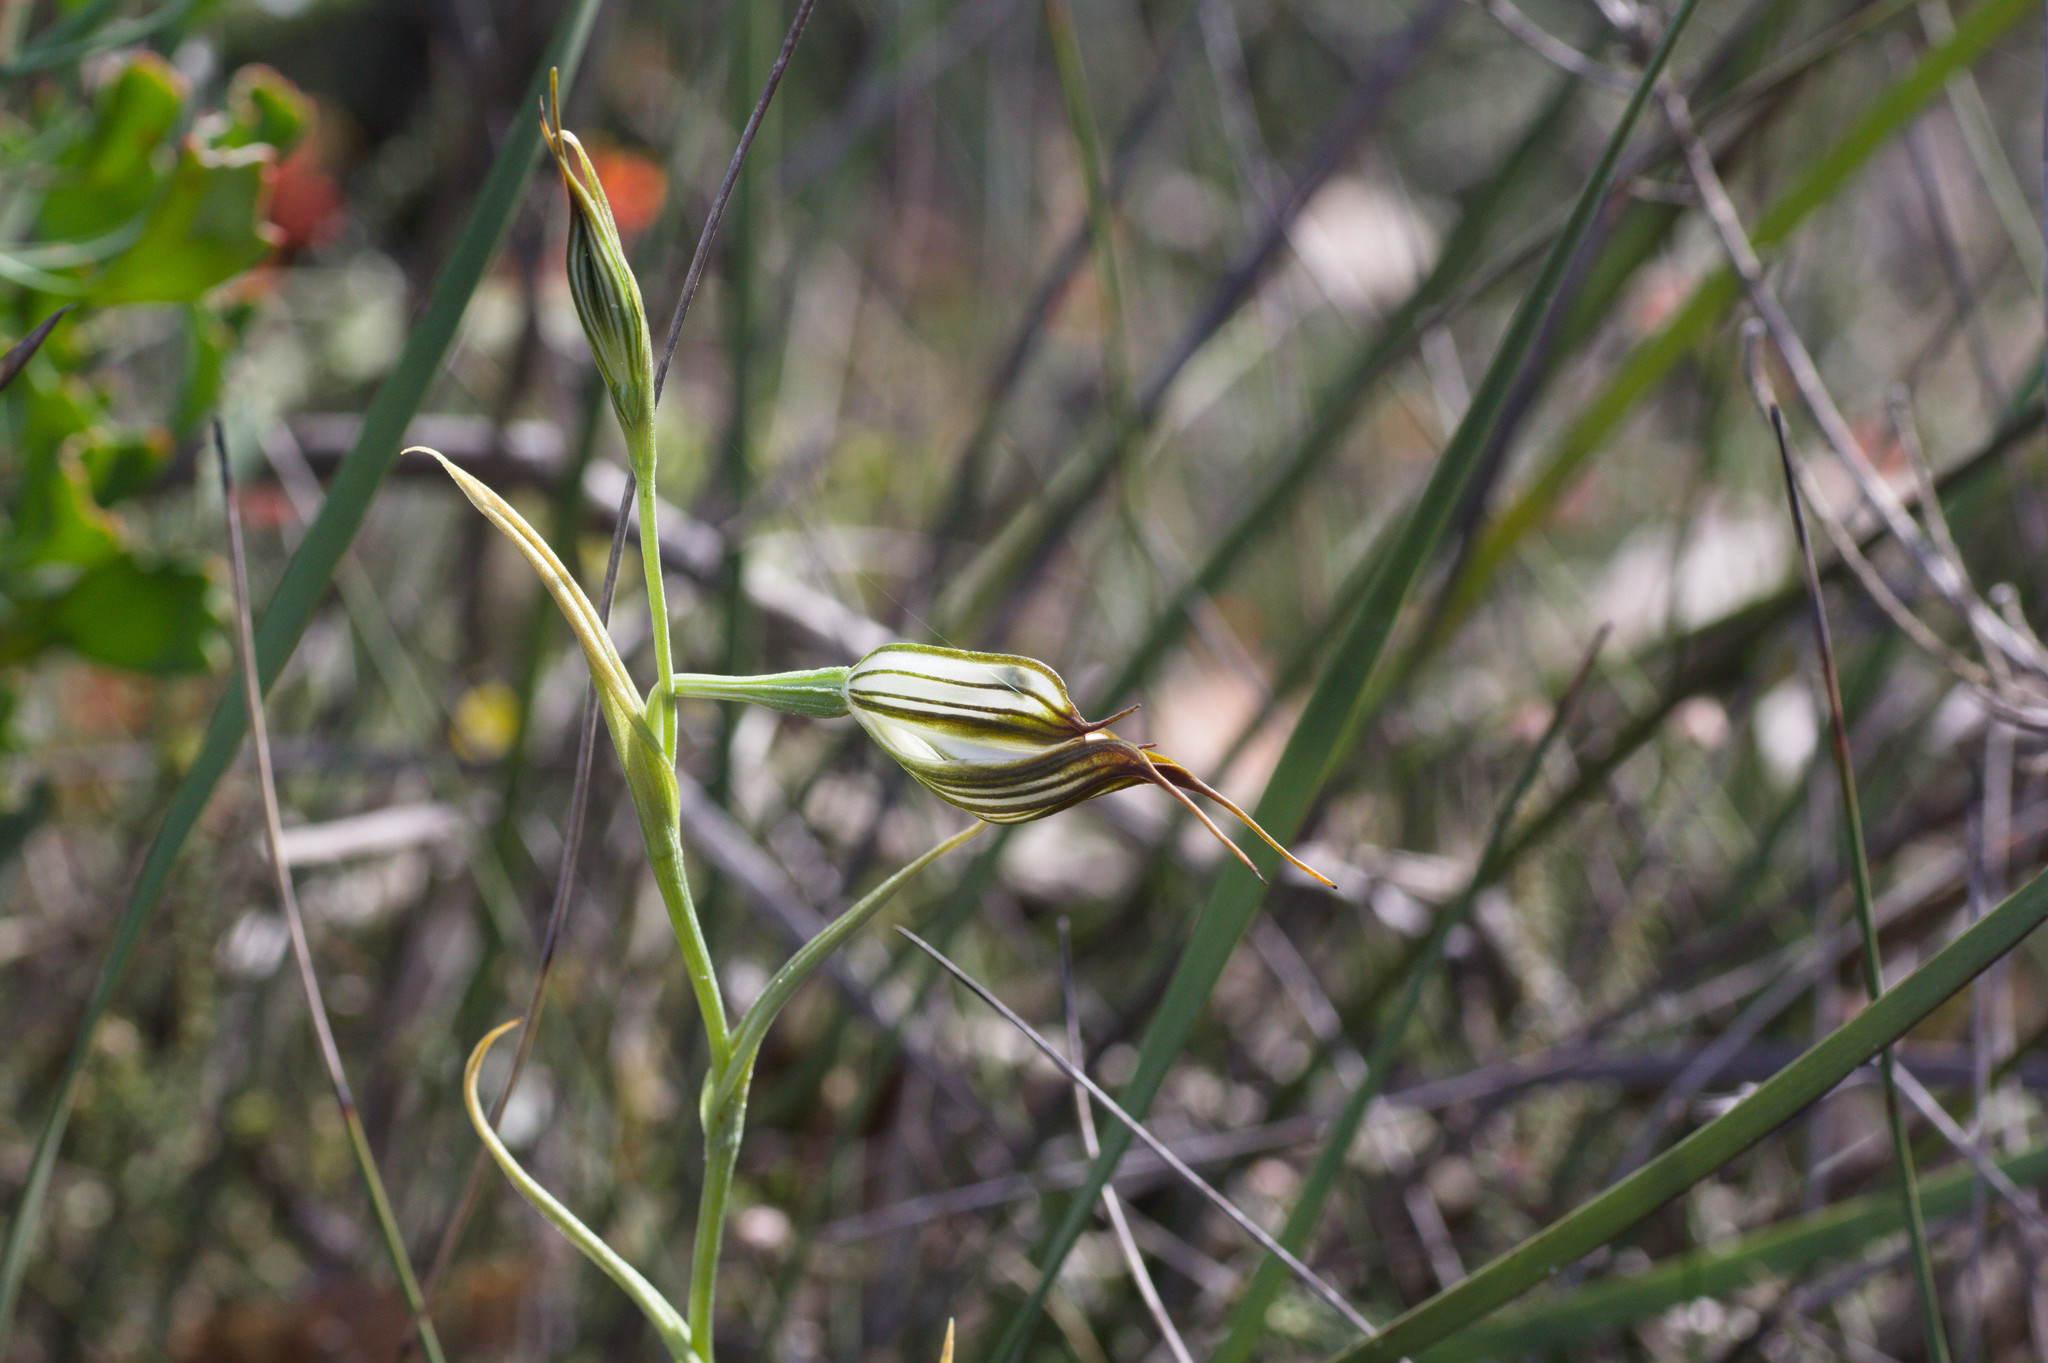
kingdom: Plantae
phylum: Tracheophyta
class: Liliopsida
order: Asparagales
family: Orchidaceae
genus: Pterostylis
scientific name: Pterostylis recurva
